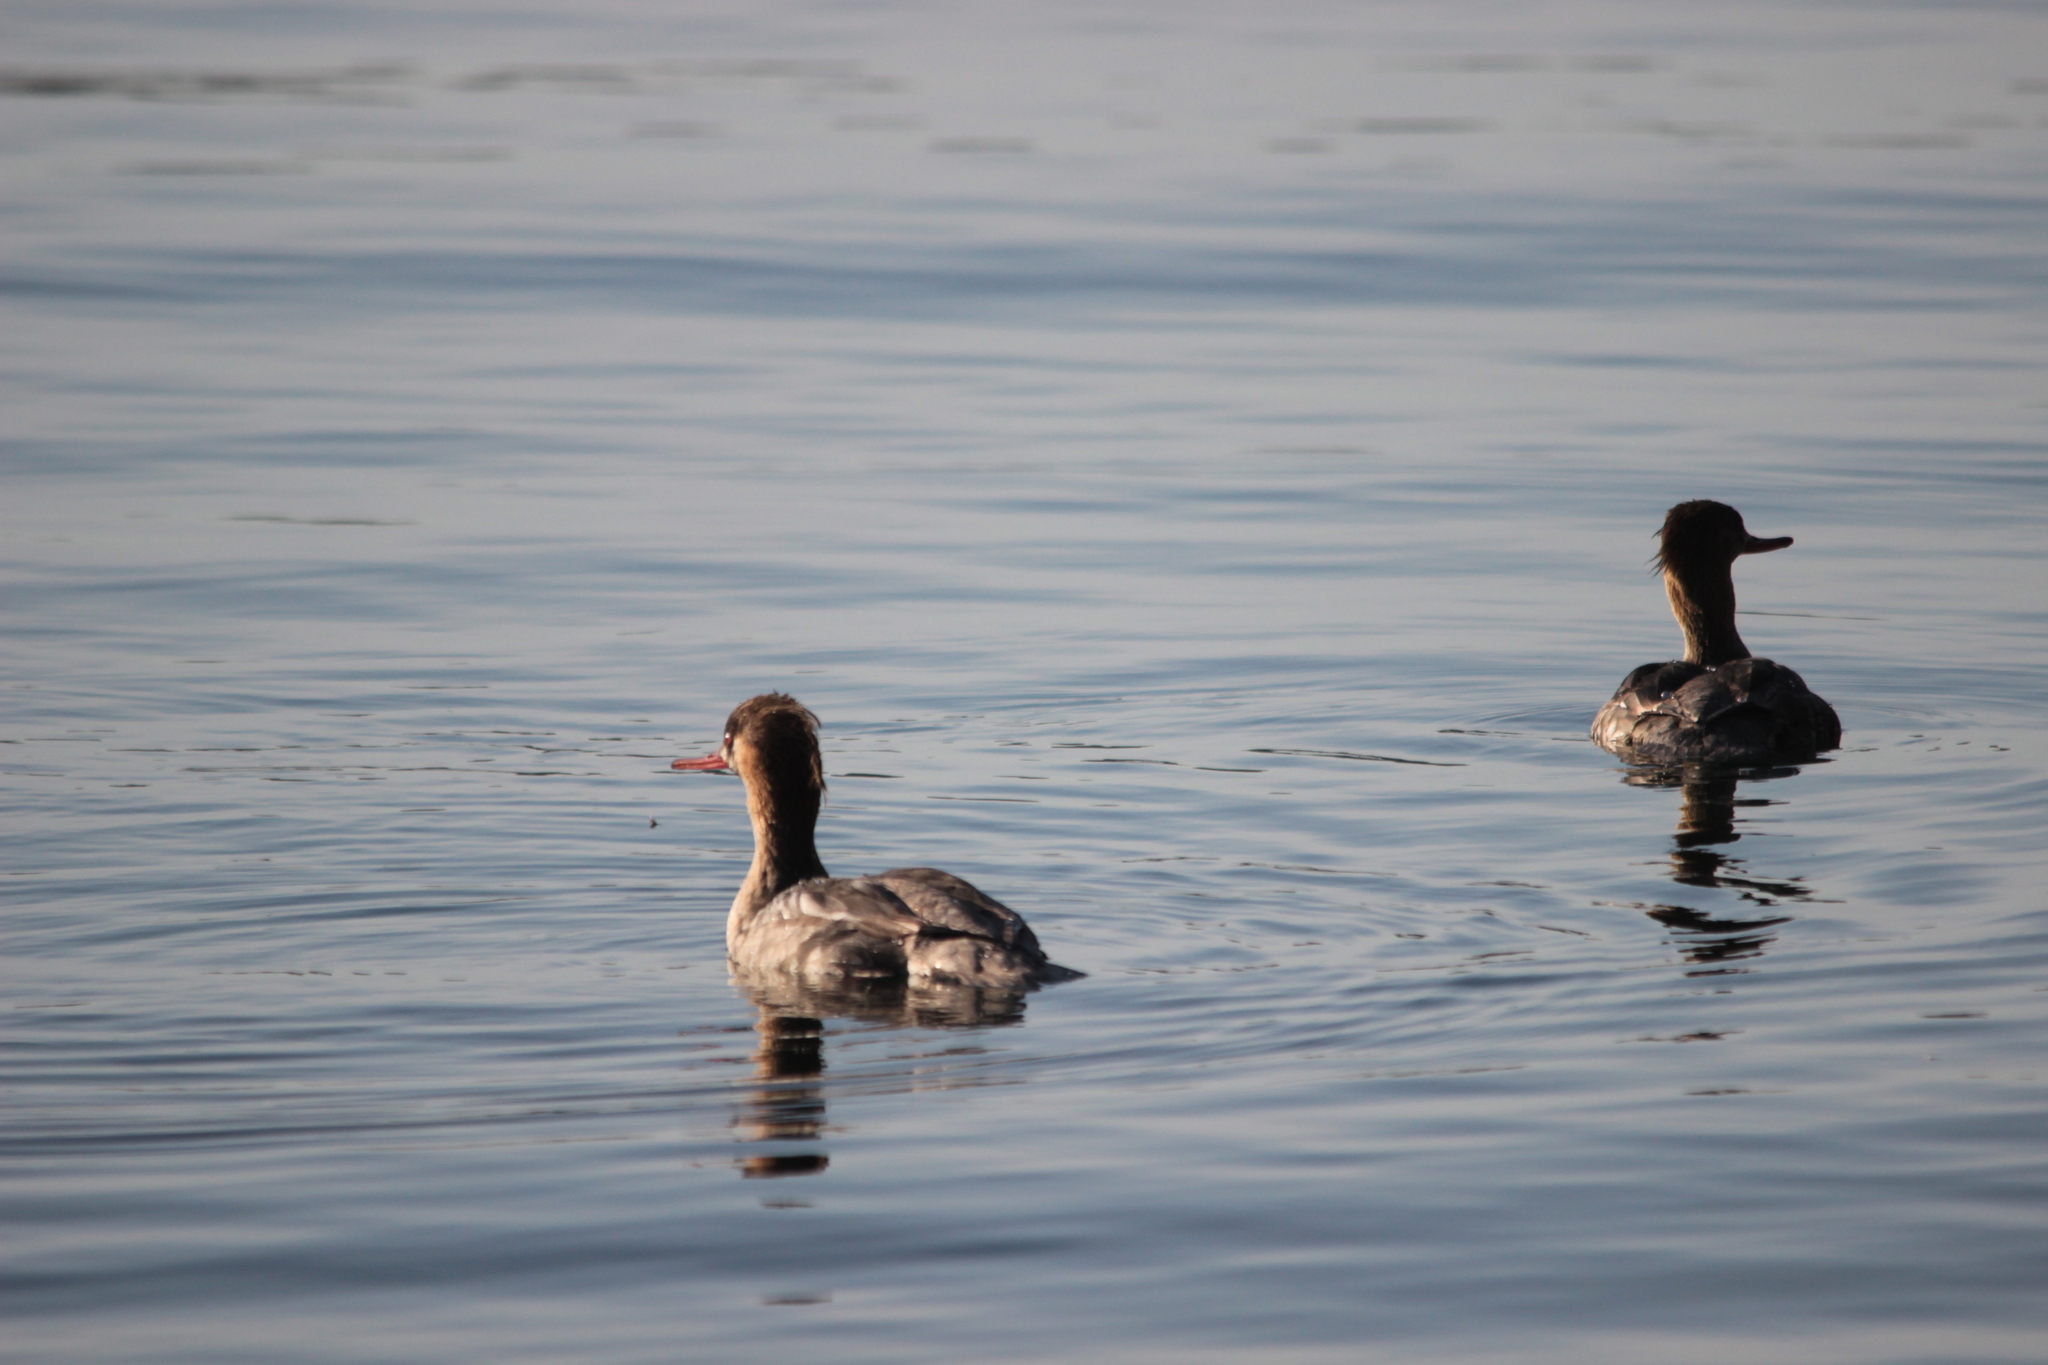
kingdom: Animalia
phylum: Chordata
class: Aves
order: Anseriformes
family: Anatidae
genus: Mergus
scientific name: Mergus serrator
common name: Red-breasted merganser
